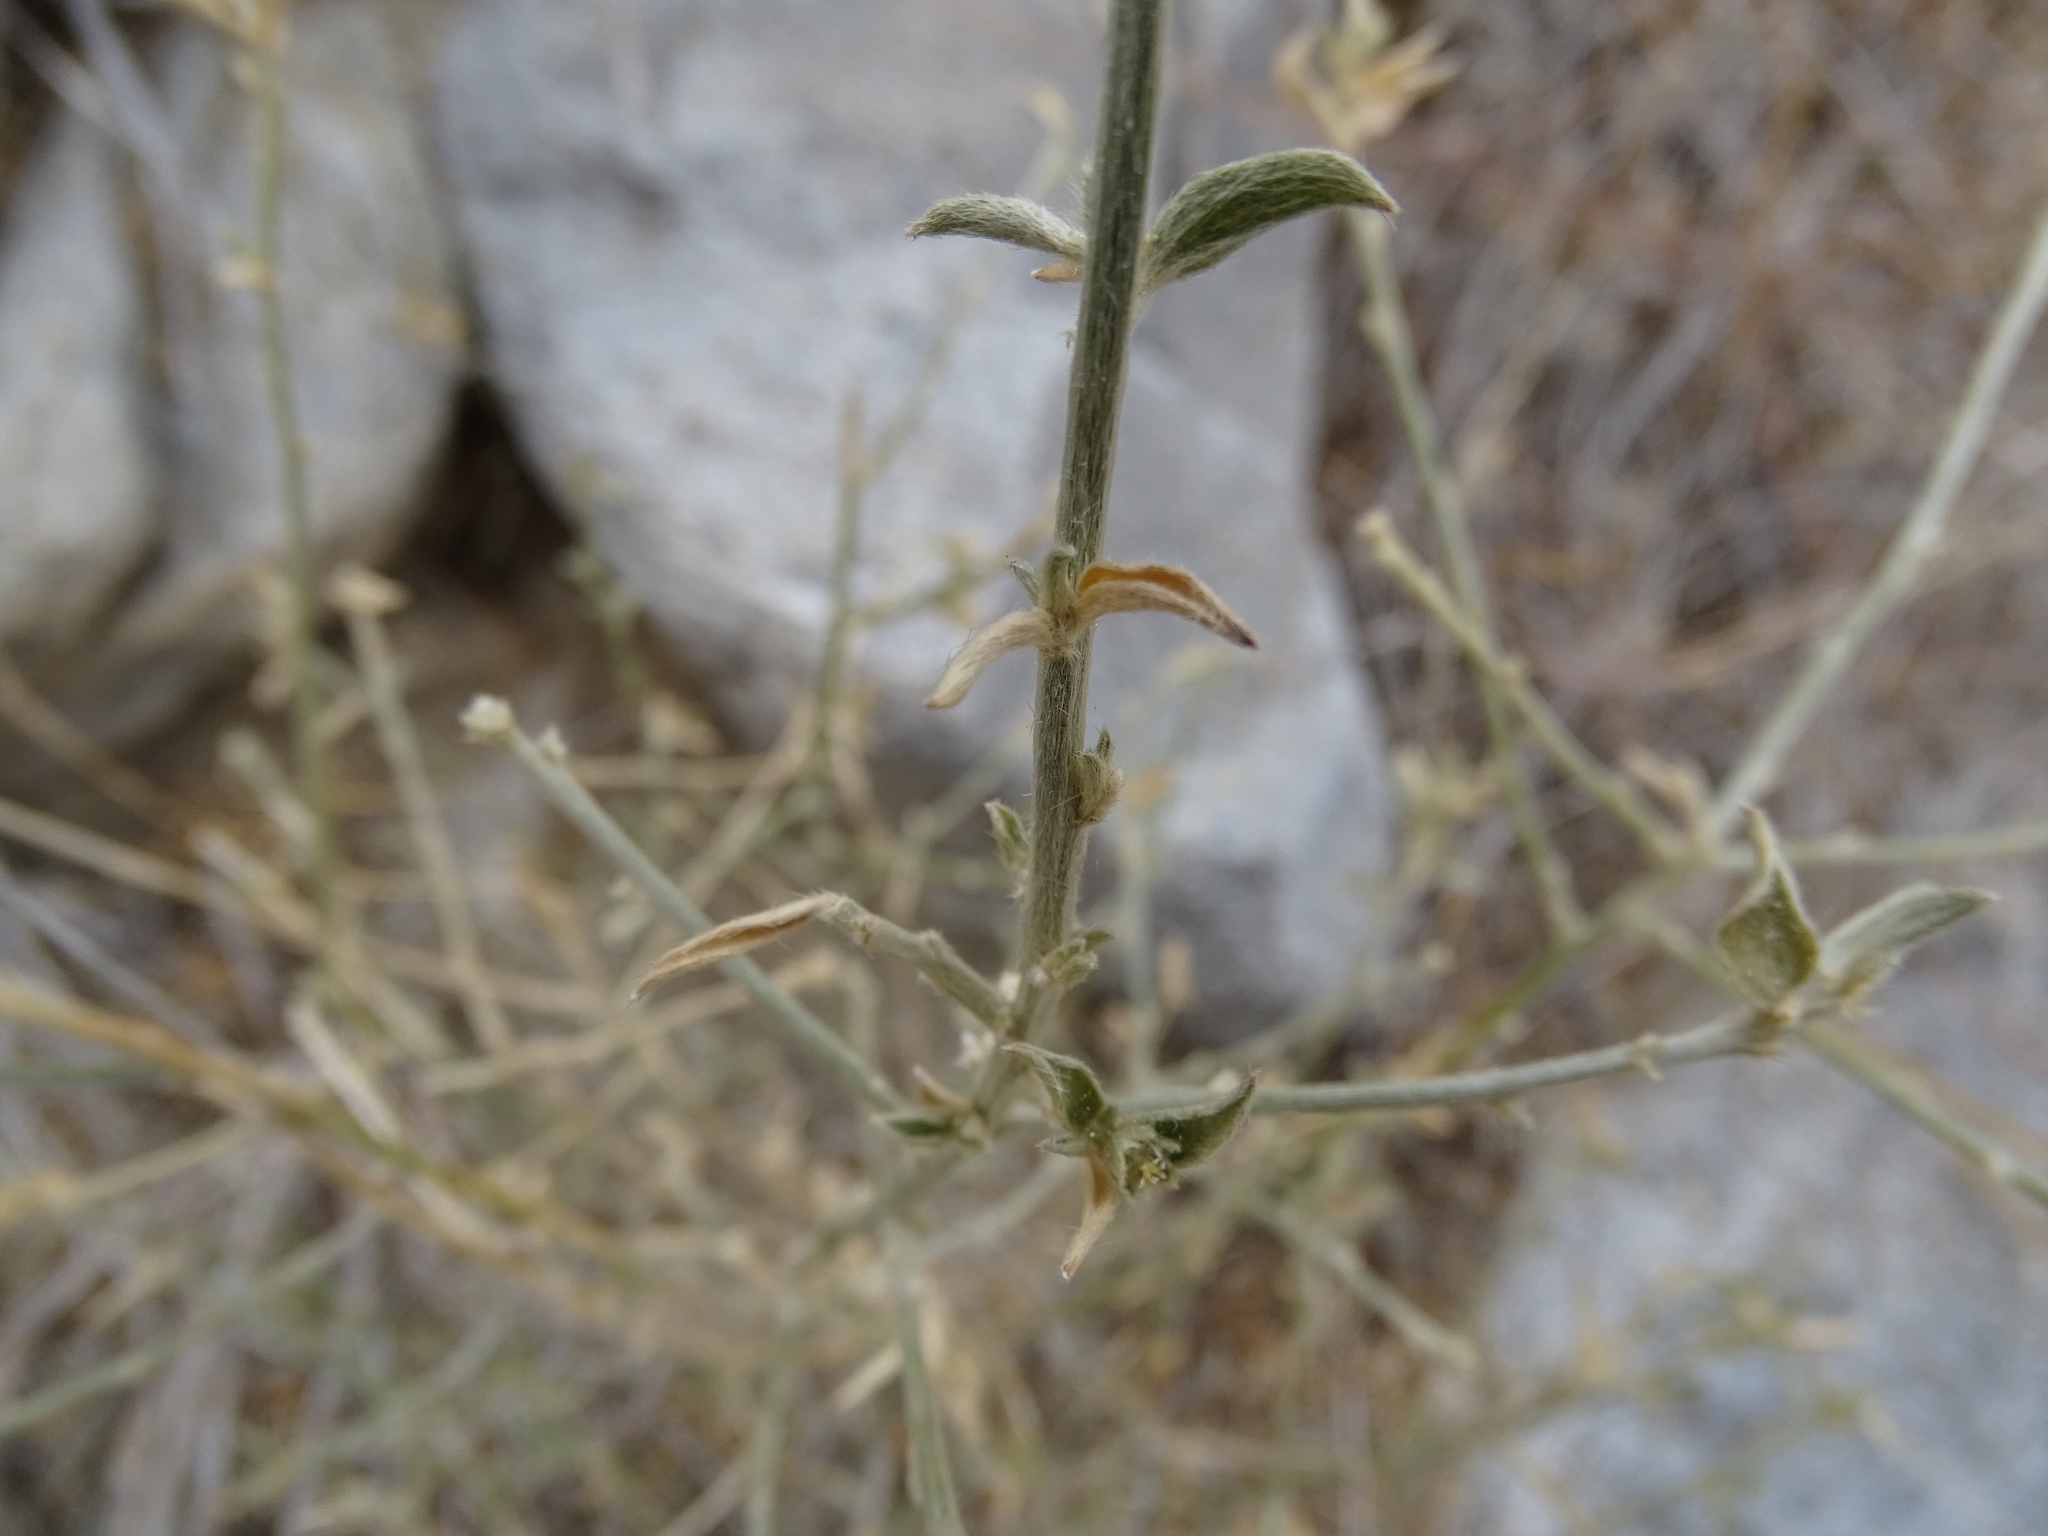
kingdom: Plantae
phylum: Tracheophyta
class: Magnoliopsida
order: Malpighiales
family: Euphorbiaceae
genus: Ditaxis
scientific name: Ditaxis lanceolata
